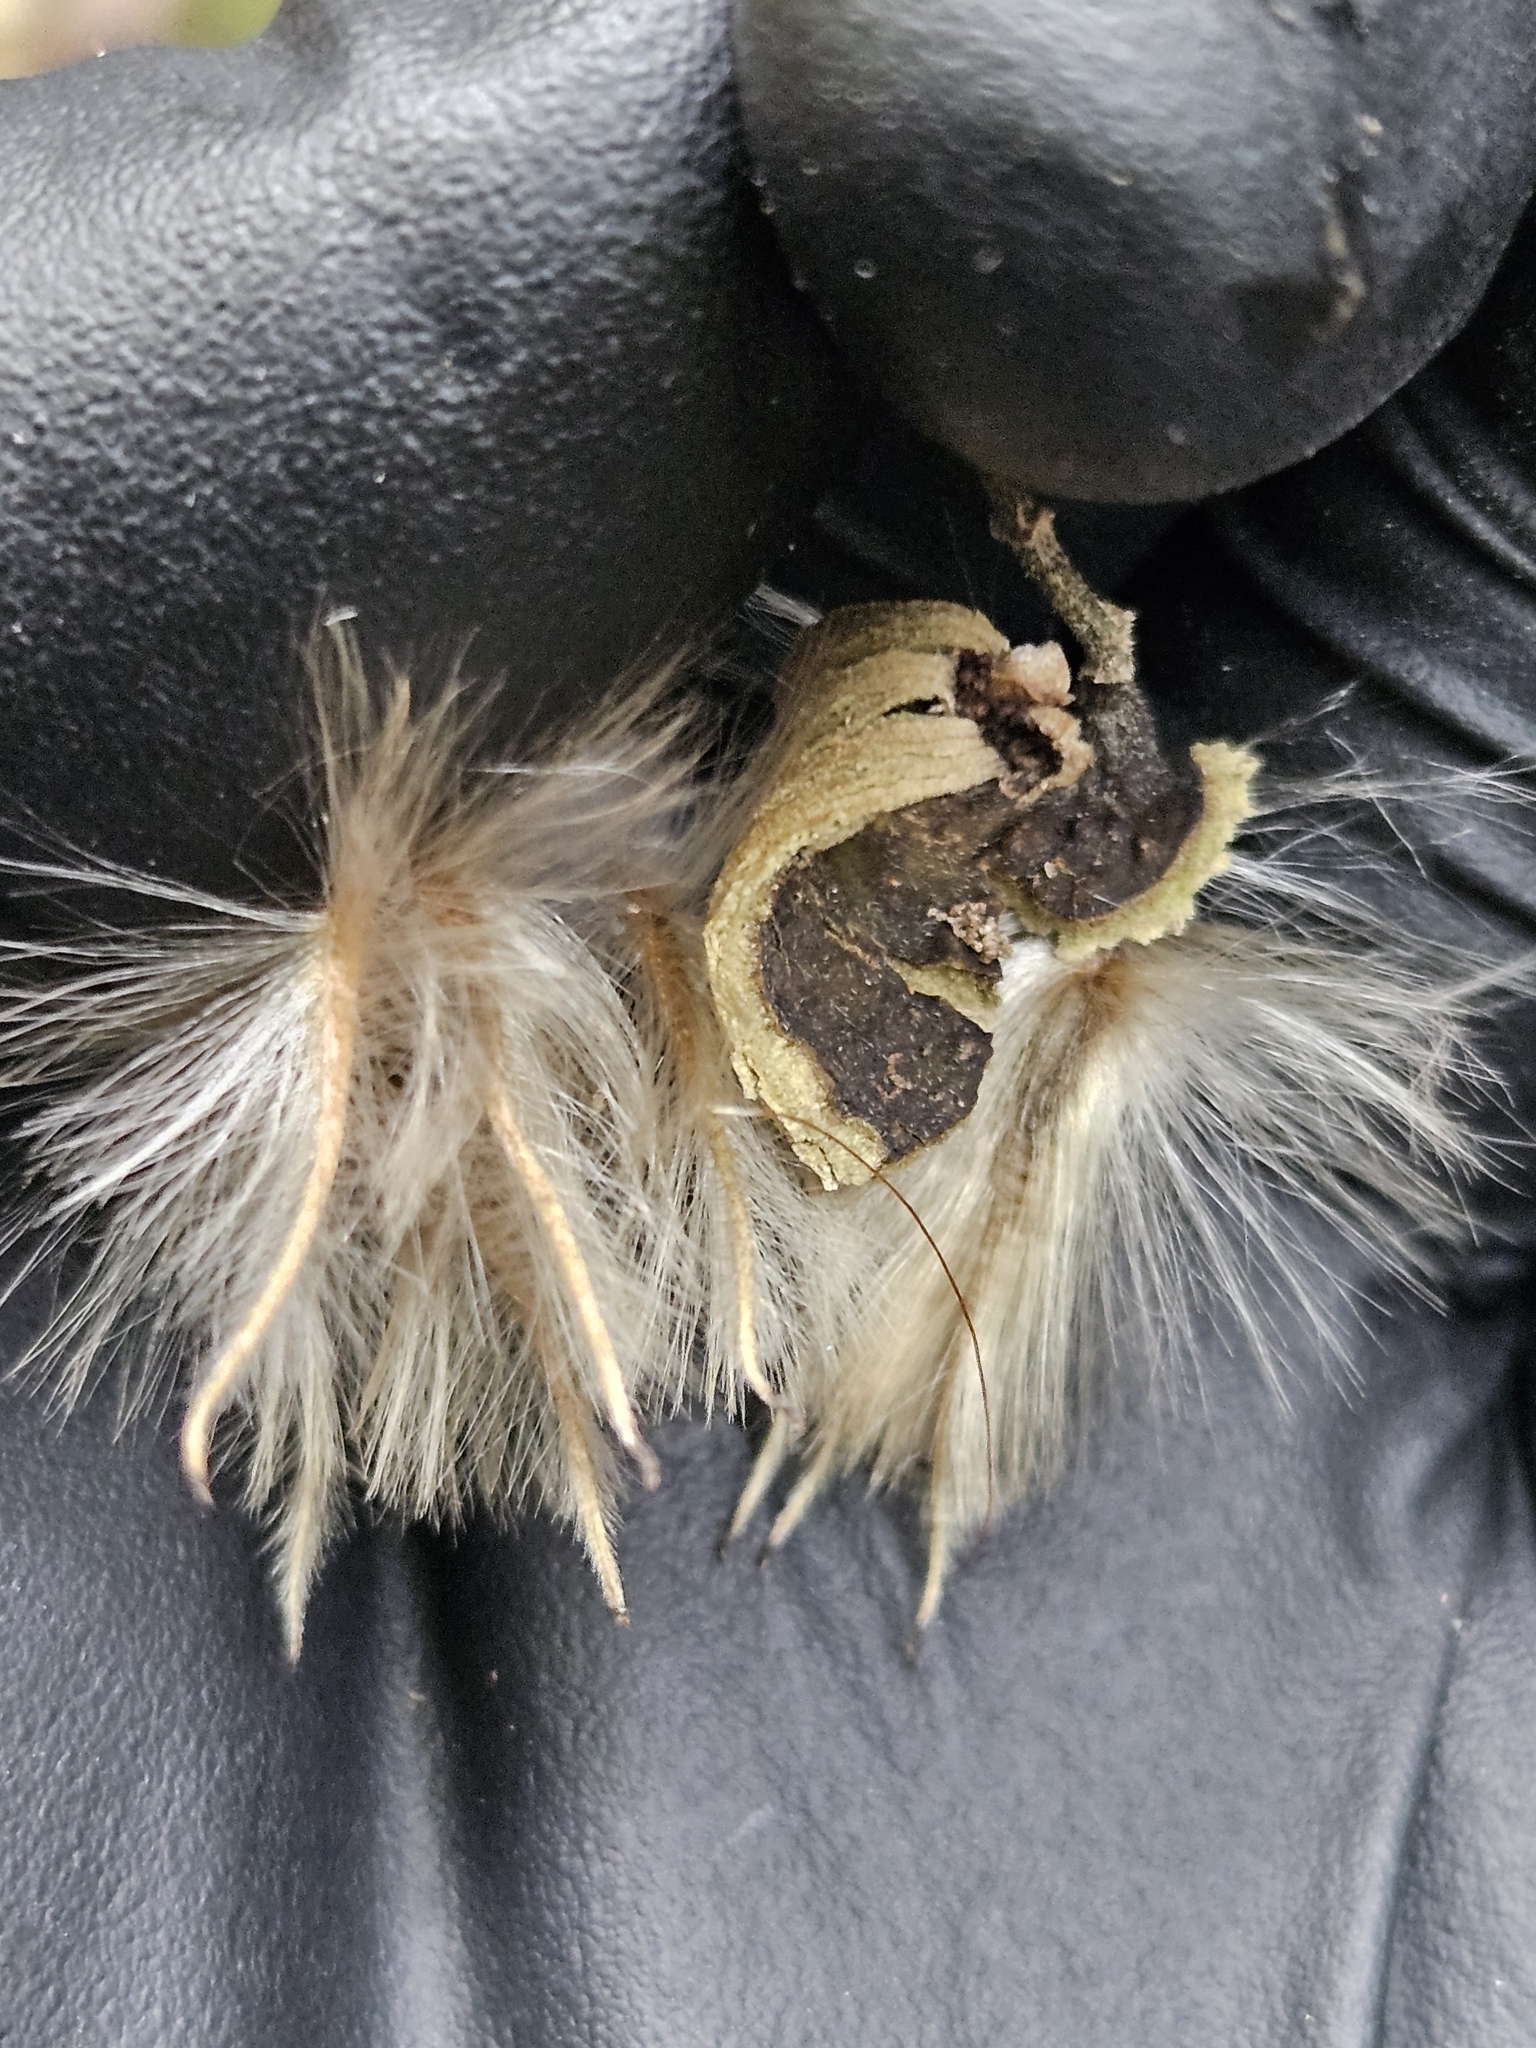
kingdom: Plantae
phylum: Tracheophyta
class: Magnoliopsida
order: Laurales
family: Atherospermataceae
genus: Laurelia
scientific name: Laurelia novae-zelandiae
